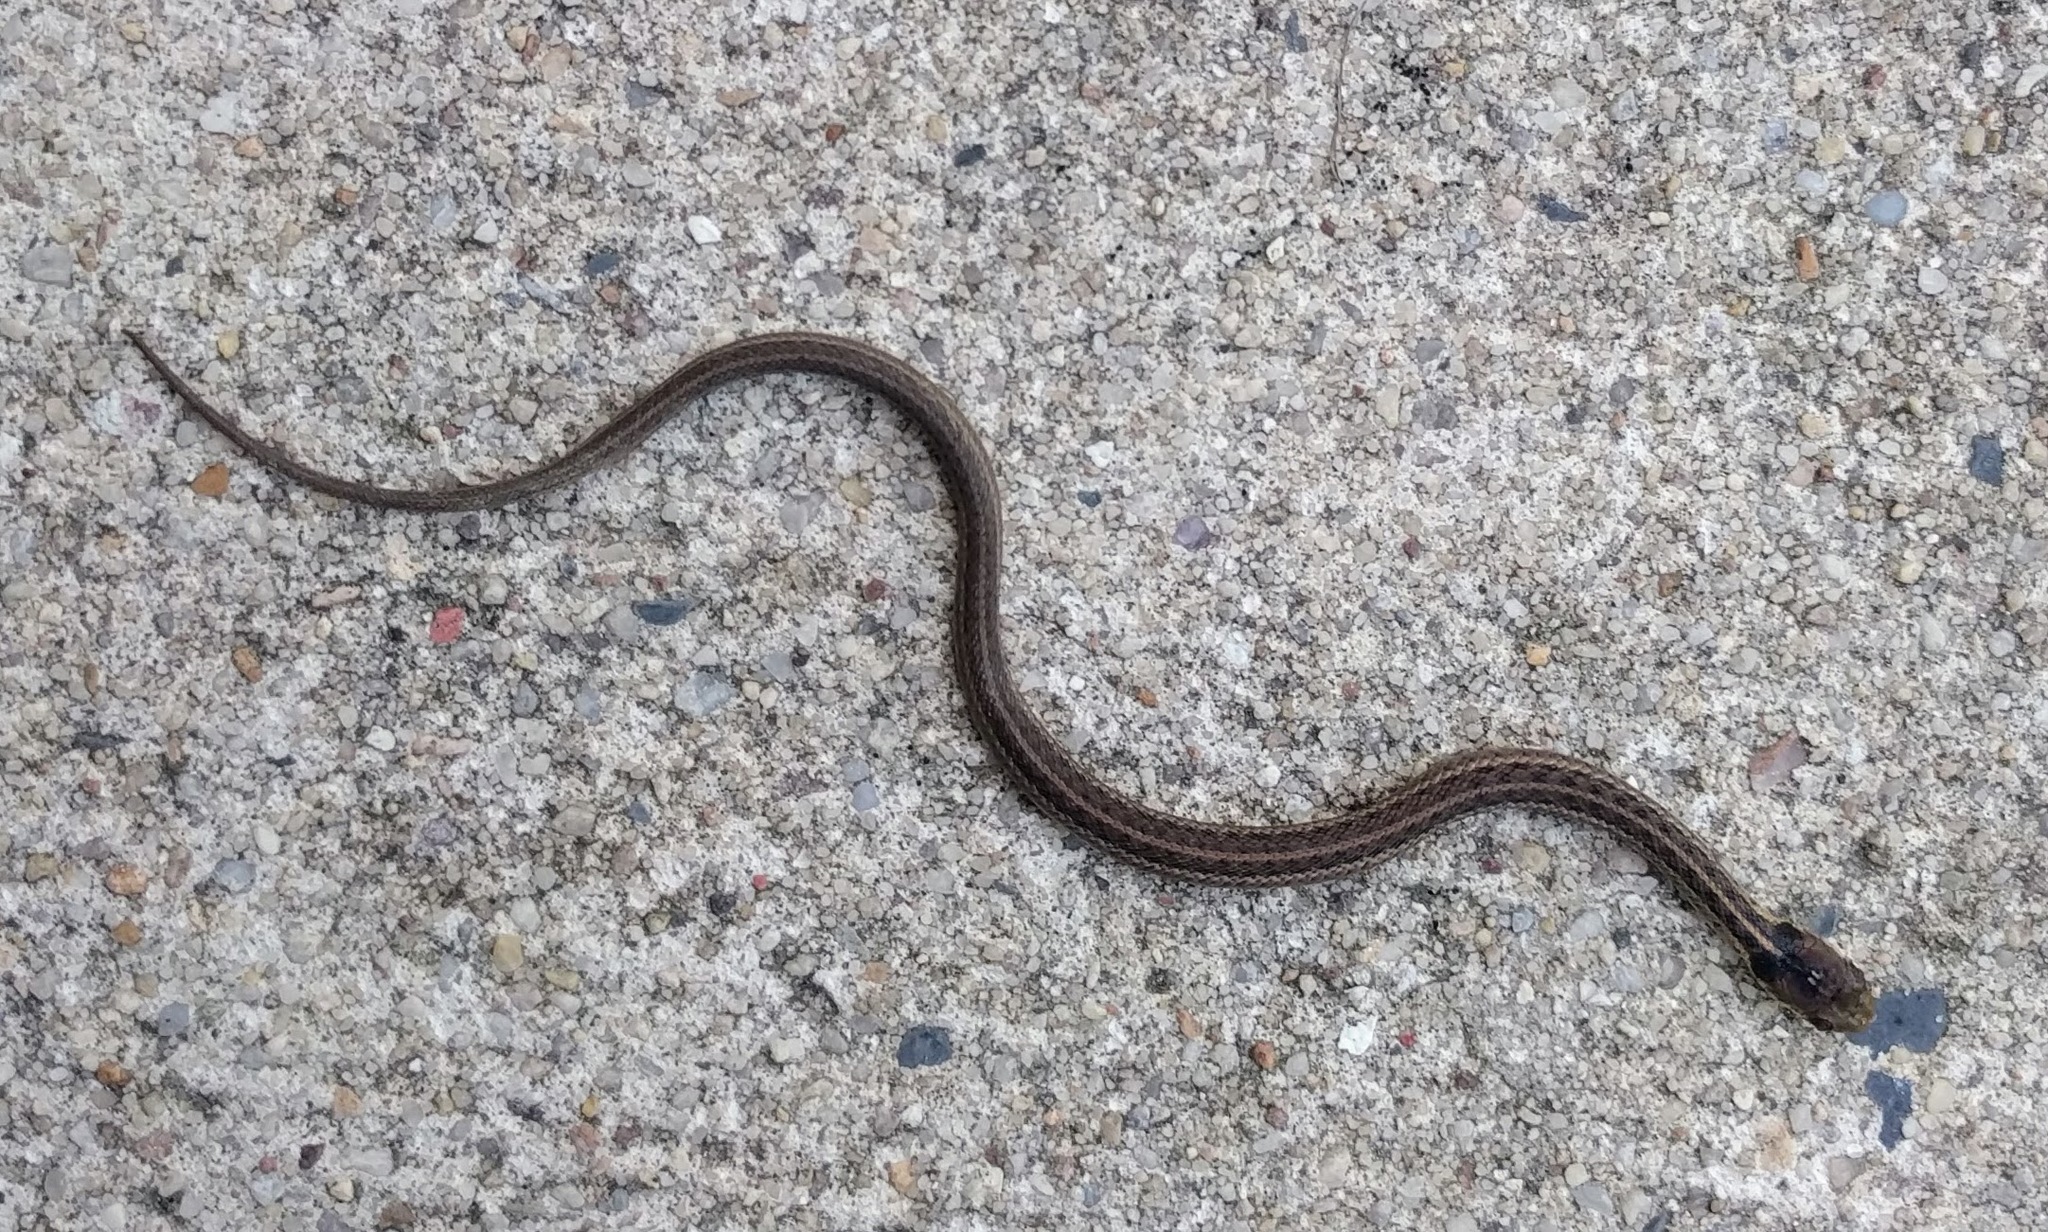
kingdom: Animalia
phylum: Chordata
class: Squamata
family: Colubridae
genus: Thamnophis
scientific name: Thamnophis sirtalis
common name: Common garter snake
